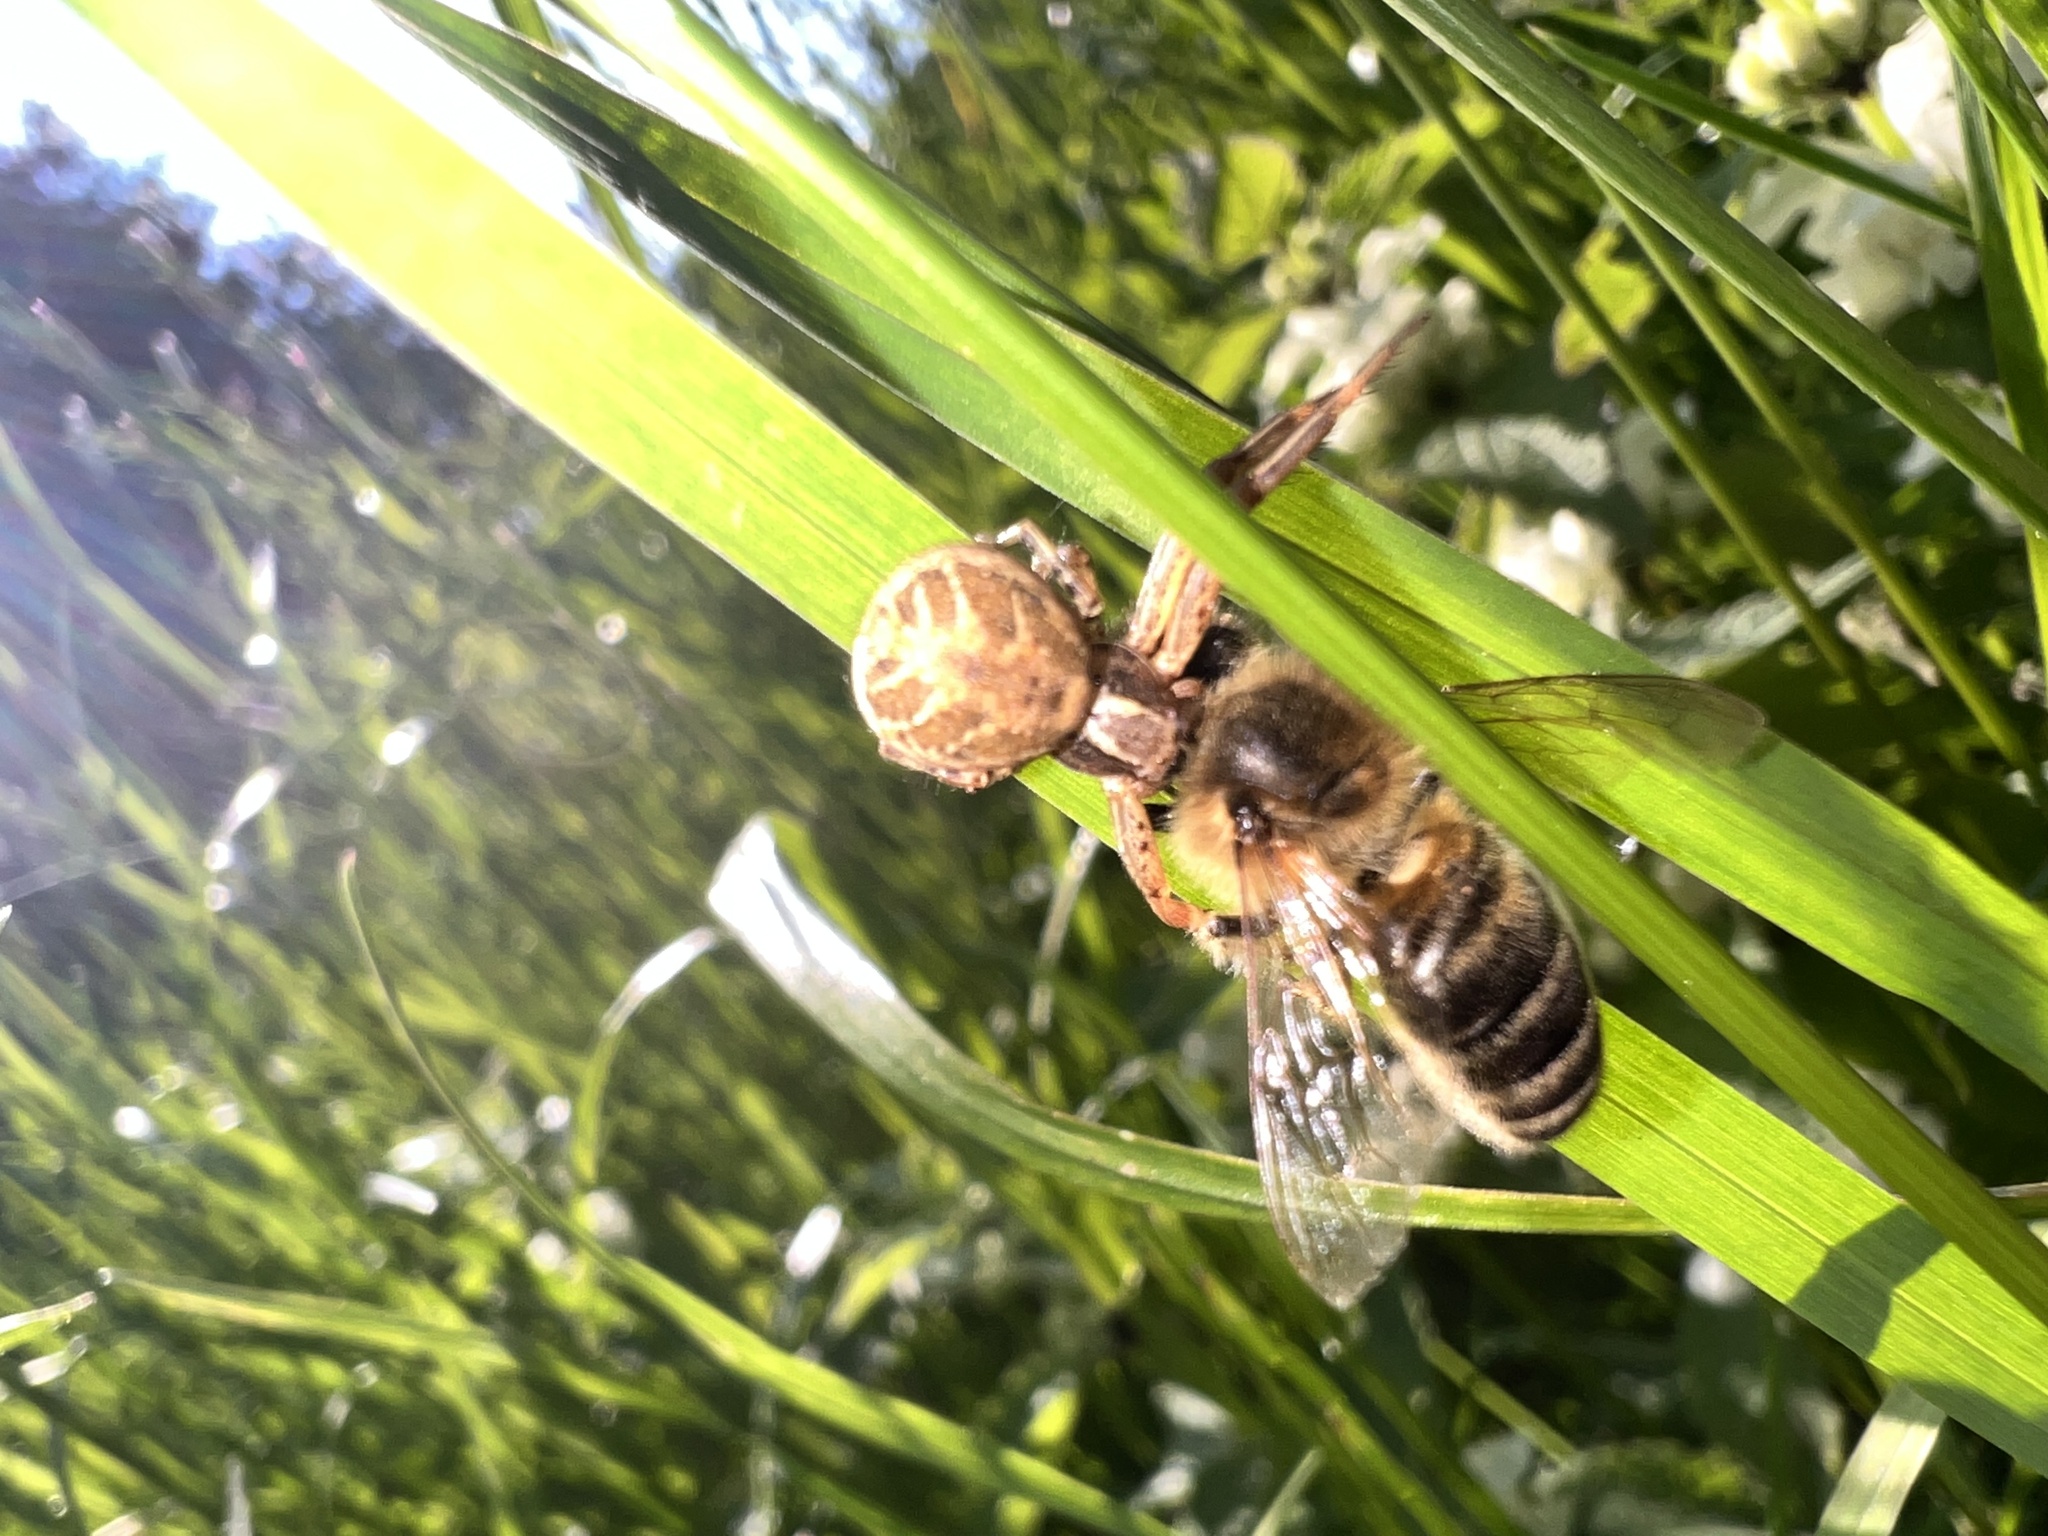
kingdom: Animalia
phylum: Arthropoda
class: Insecta
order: Hymenoptera
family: Apidae
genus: Apis
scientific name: Apis mellifera
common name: Honey bee
